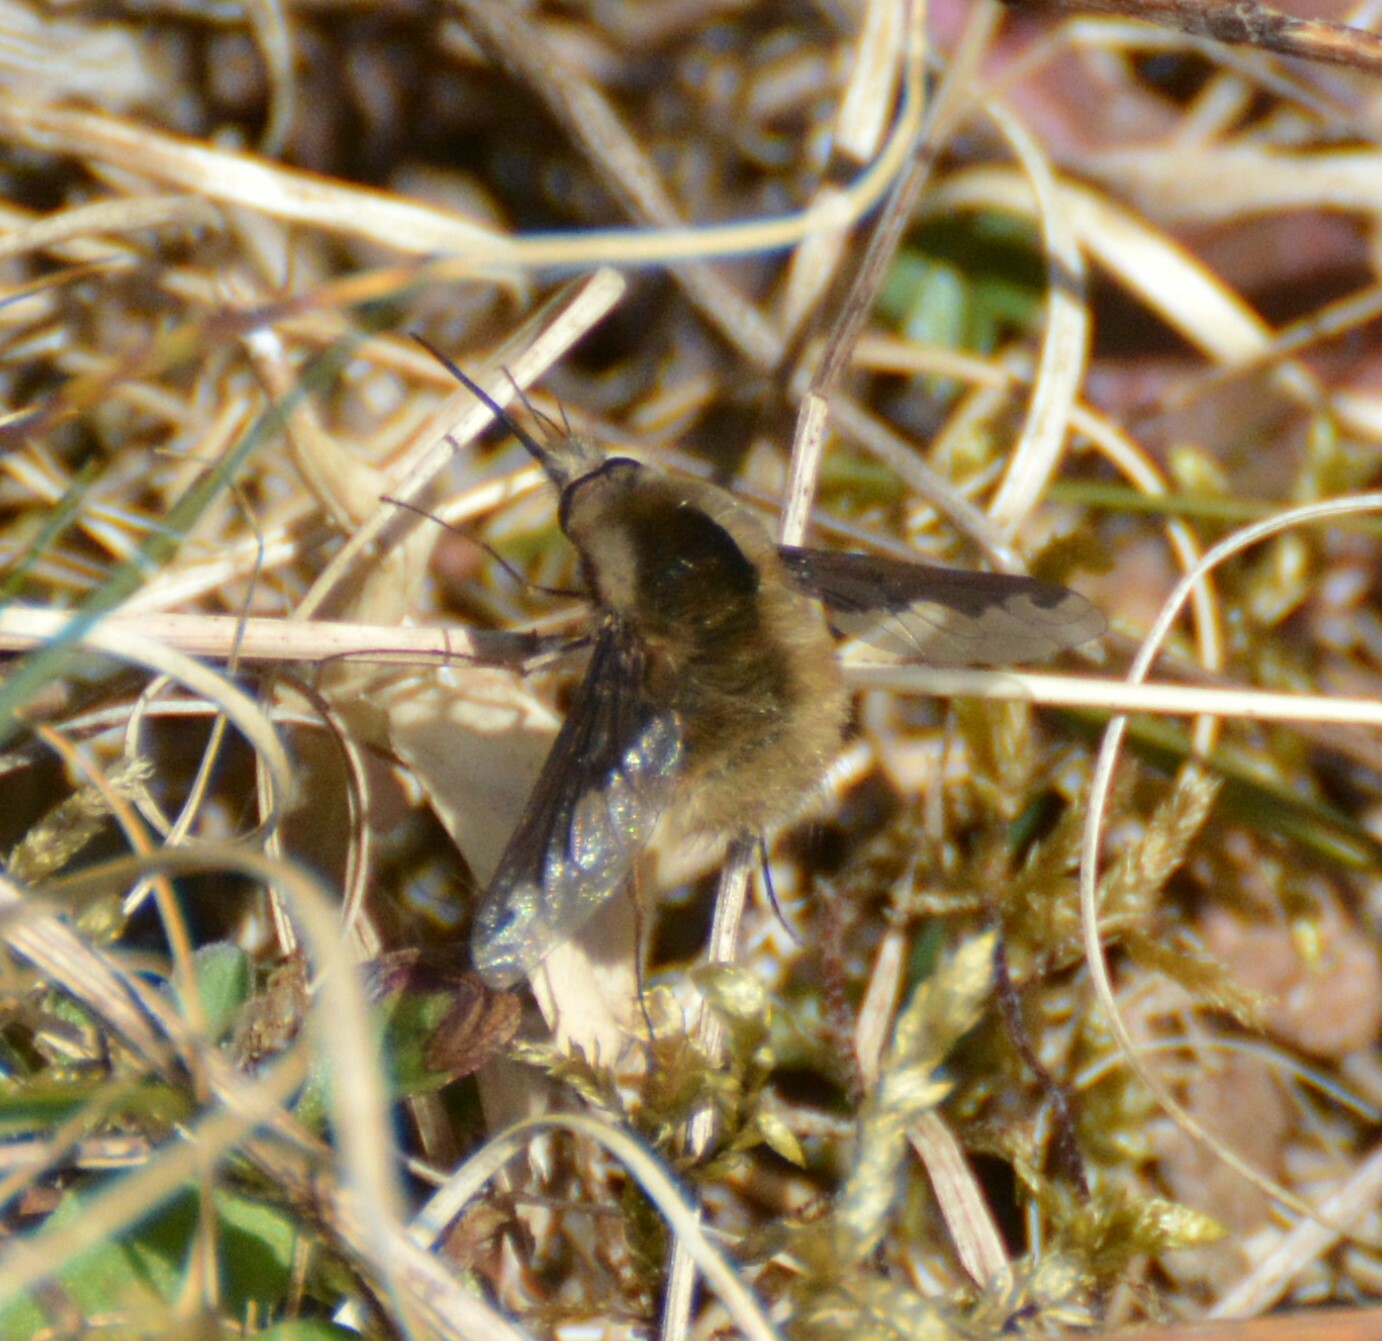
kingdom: Animalia
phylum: Arthropoda
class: Insecta
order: Diptera
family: Bombyliidae
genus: Bombylius
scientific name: Bombylius major
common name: Bee fly
